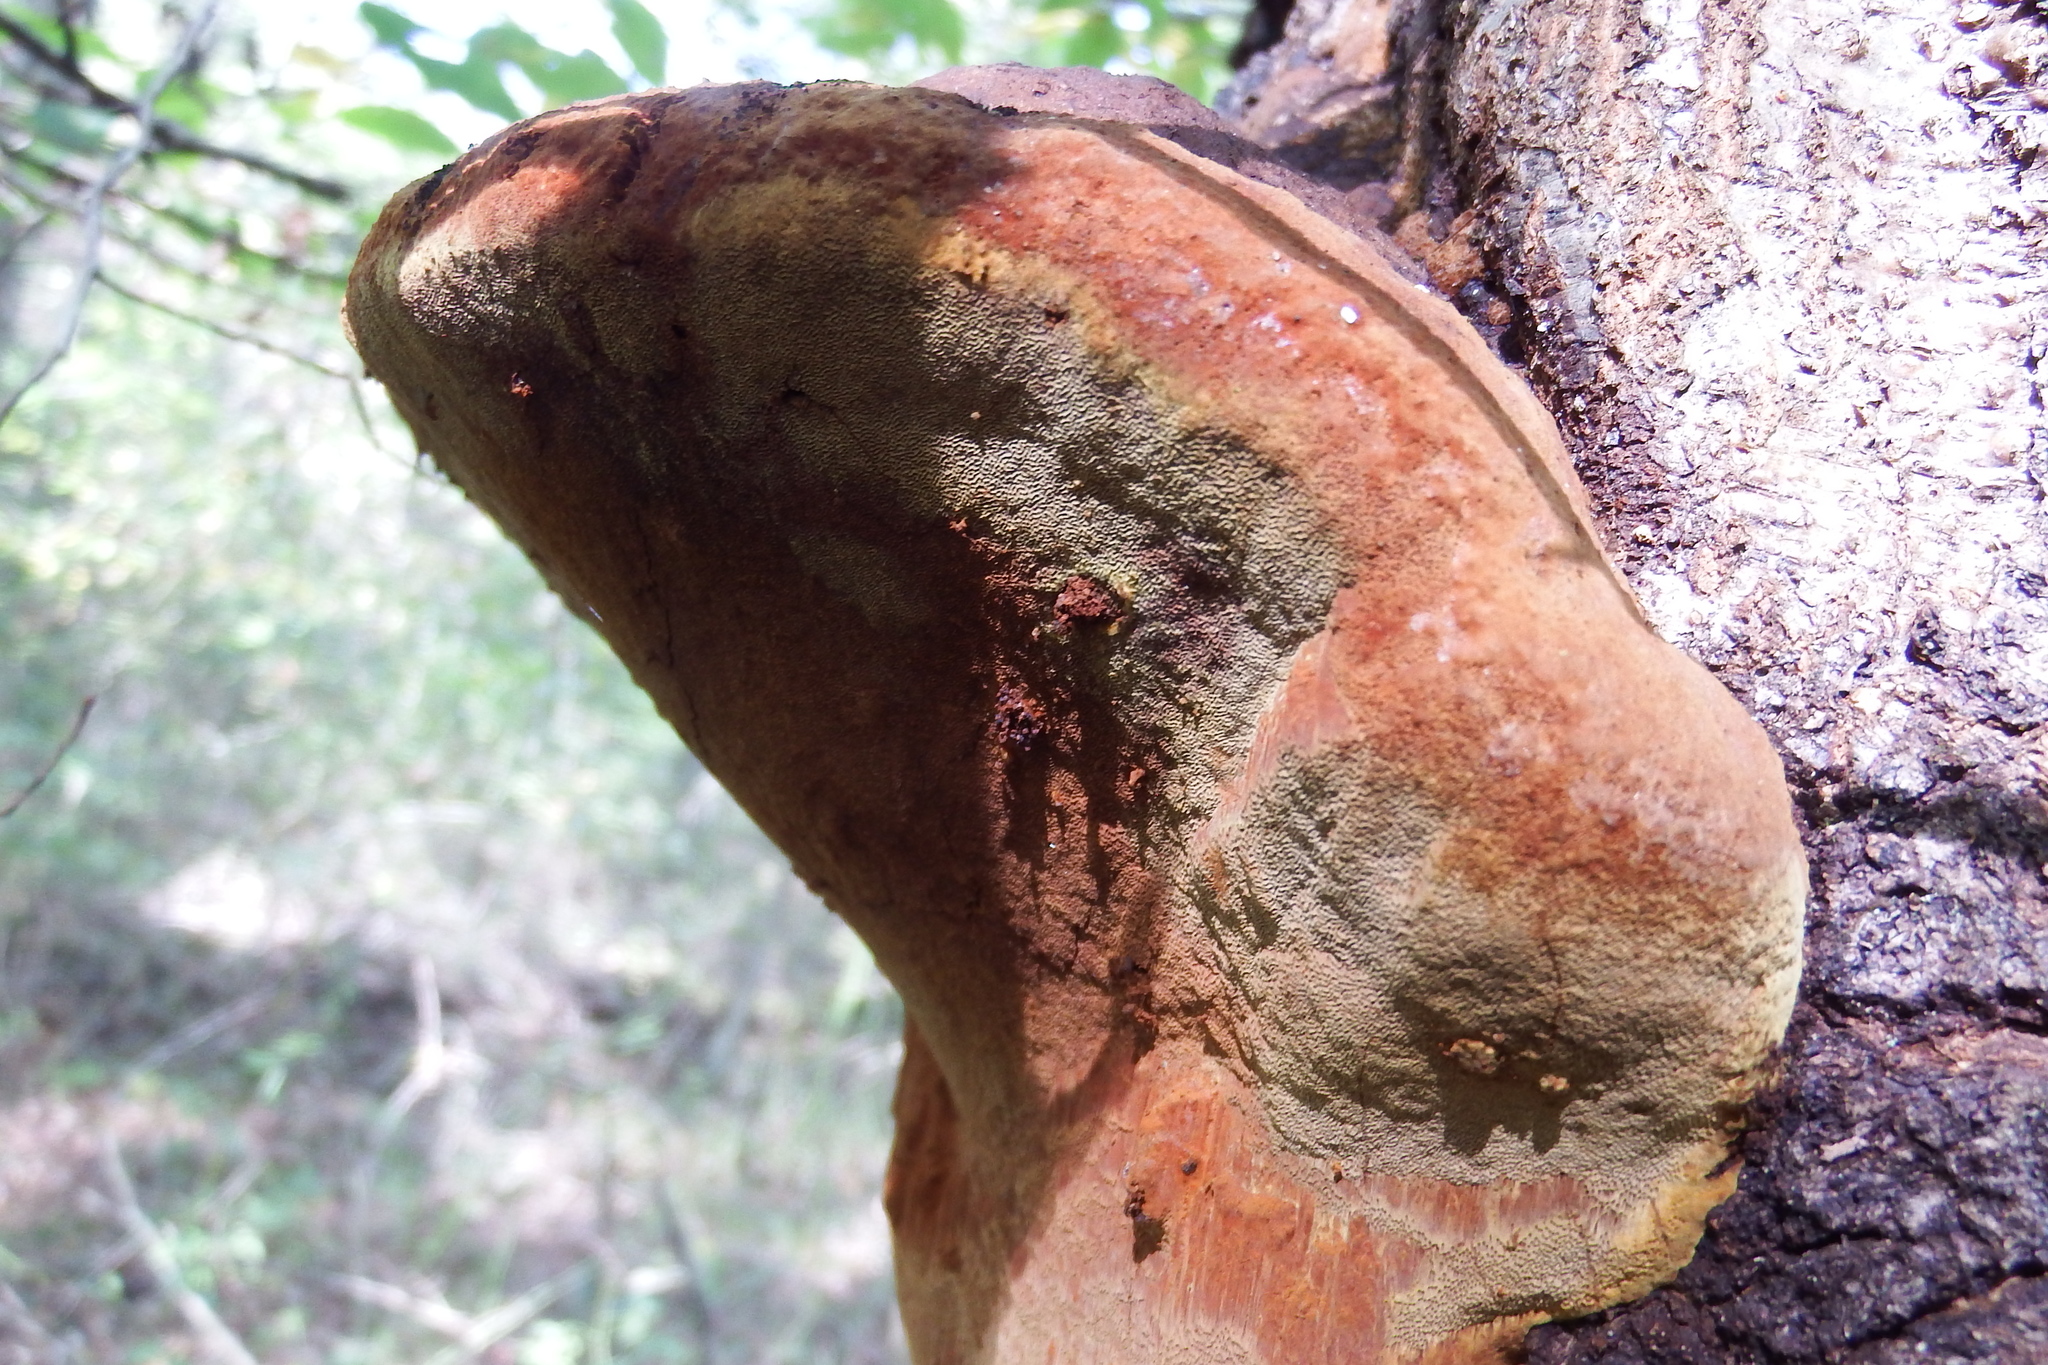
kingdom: Fungi
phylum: Basidiomycota
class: Agaricomycetes
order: Hymenochaetales
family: Hymenochaetaceae
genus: Meganotus
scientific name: Meganotus everhartii
